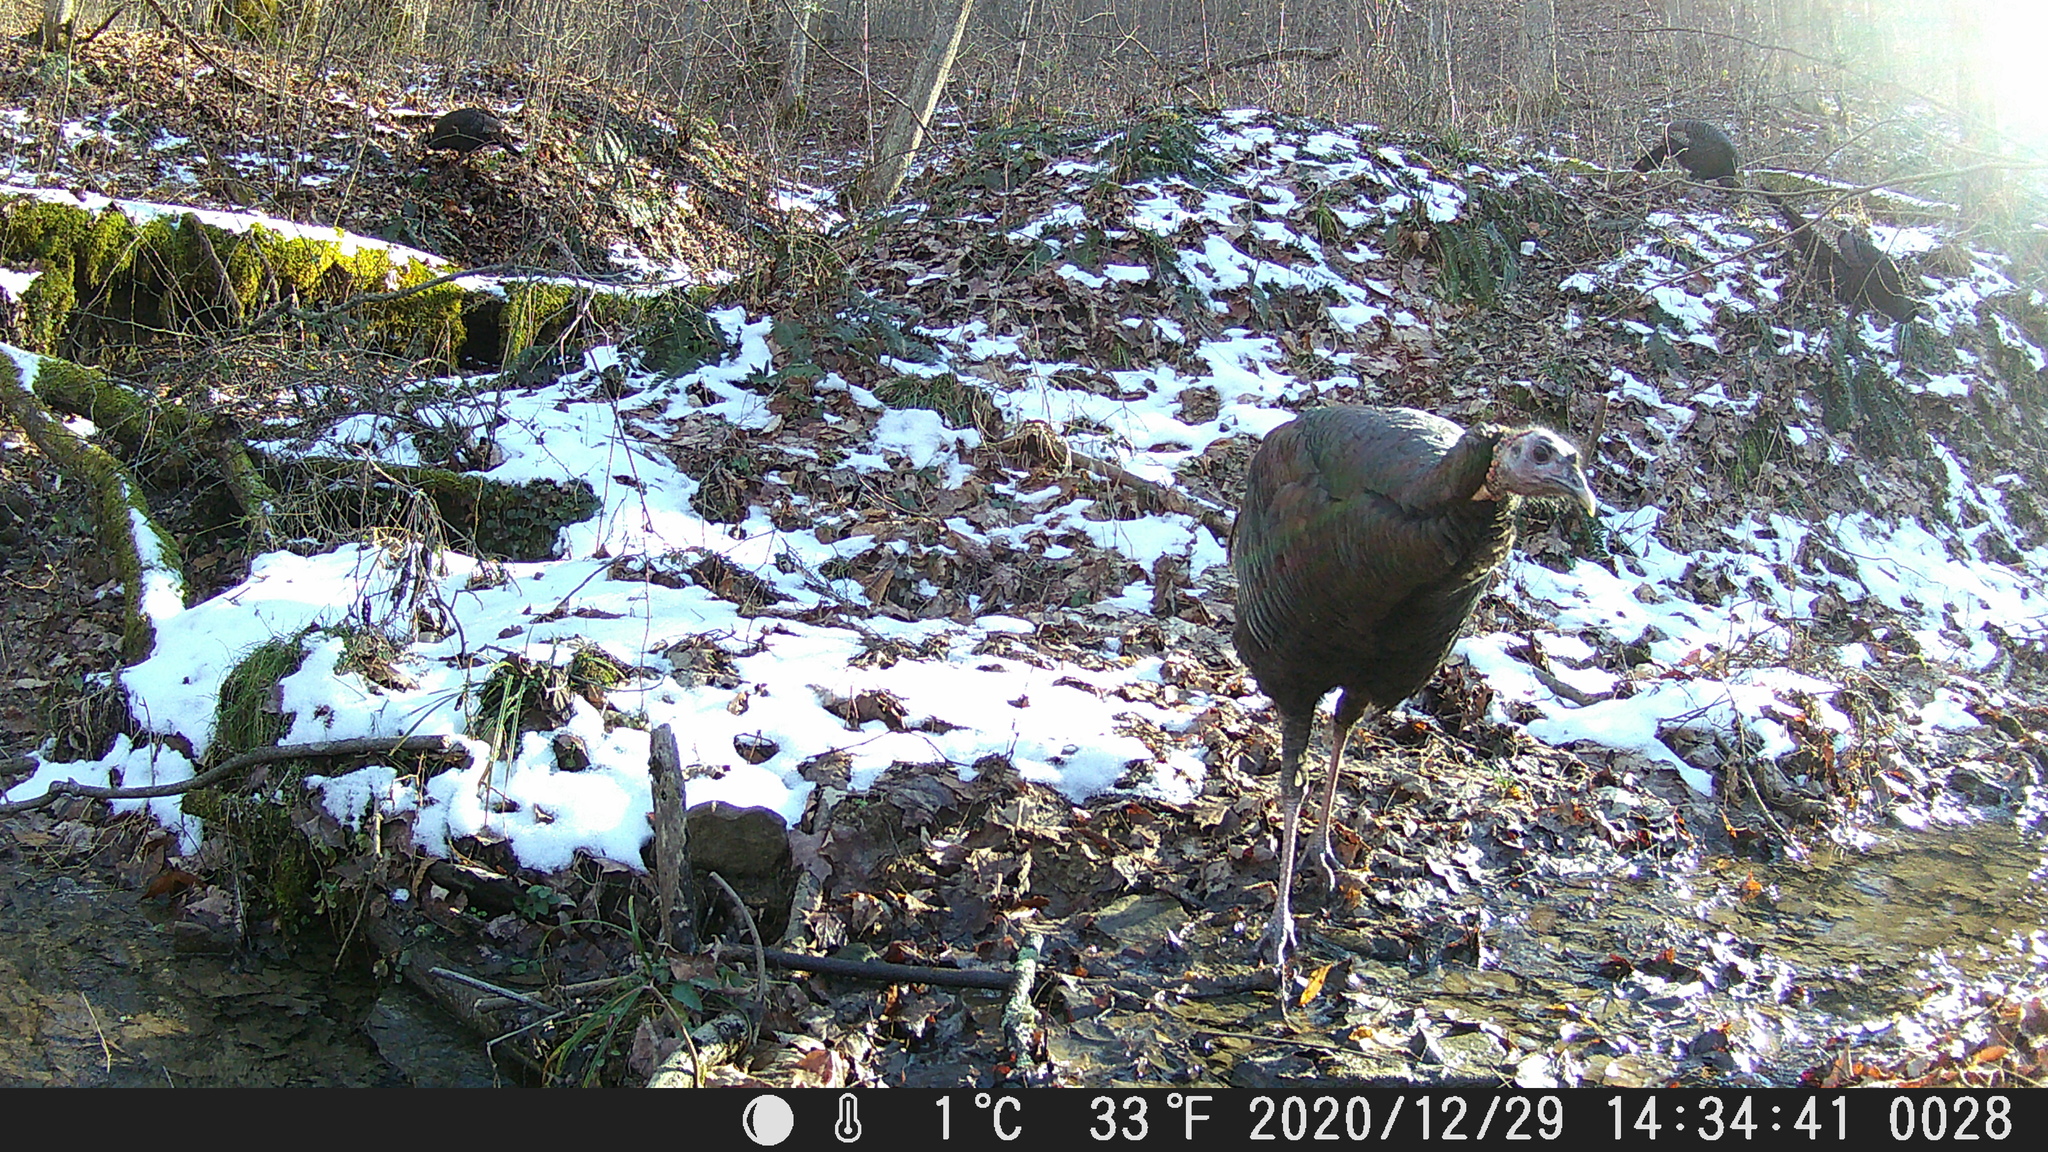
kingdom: Animalia
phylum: Chordata
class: Aves
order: Galliformes
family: Phasianidae
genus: Meleagris
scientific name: Meleagris gallopavo
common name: Wild turkey
